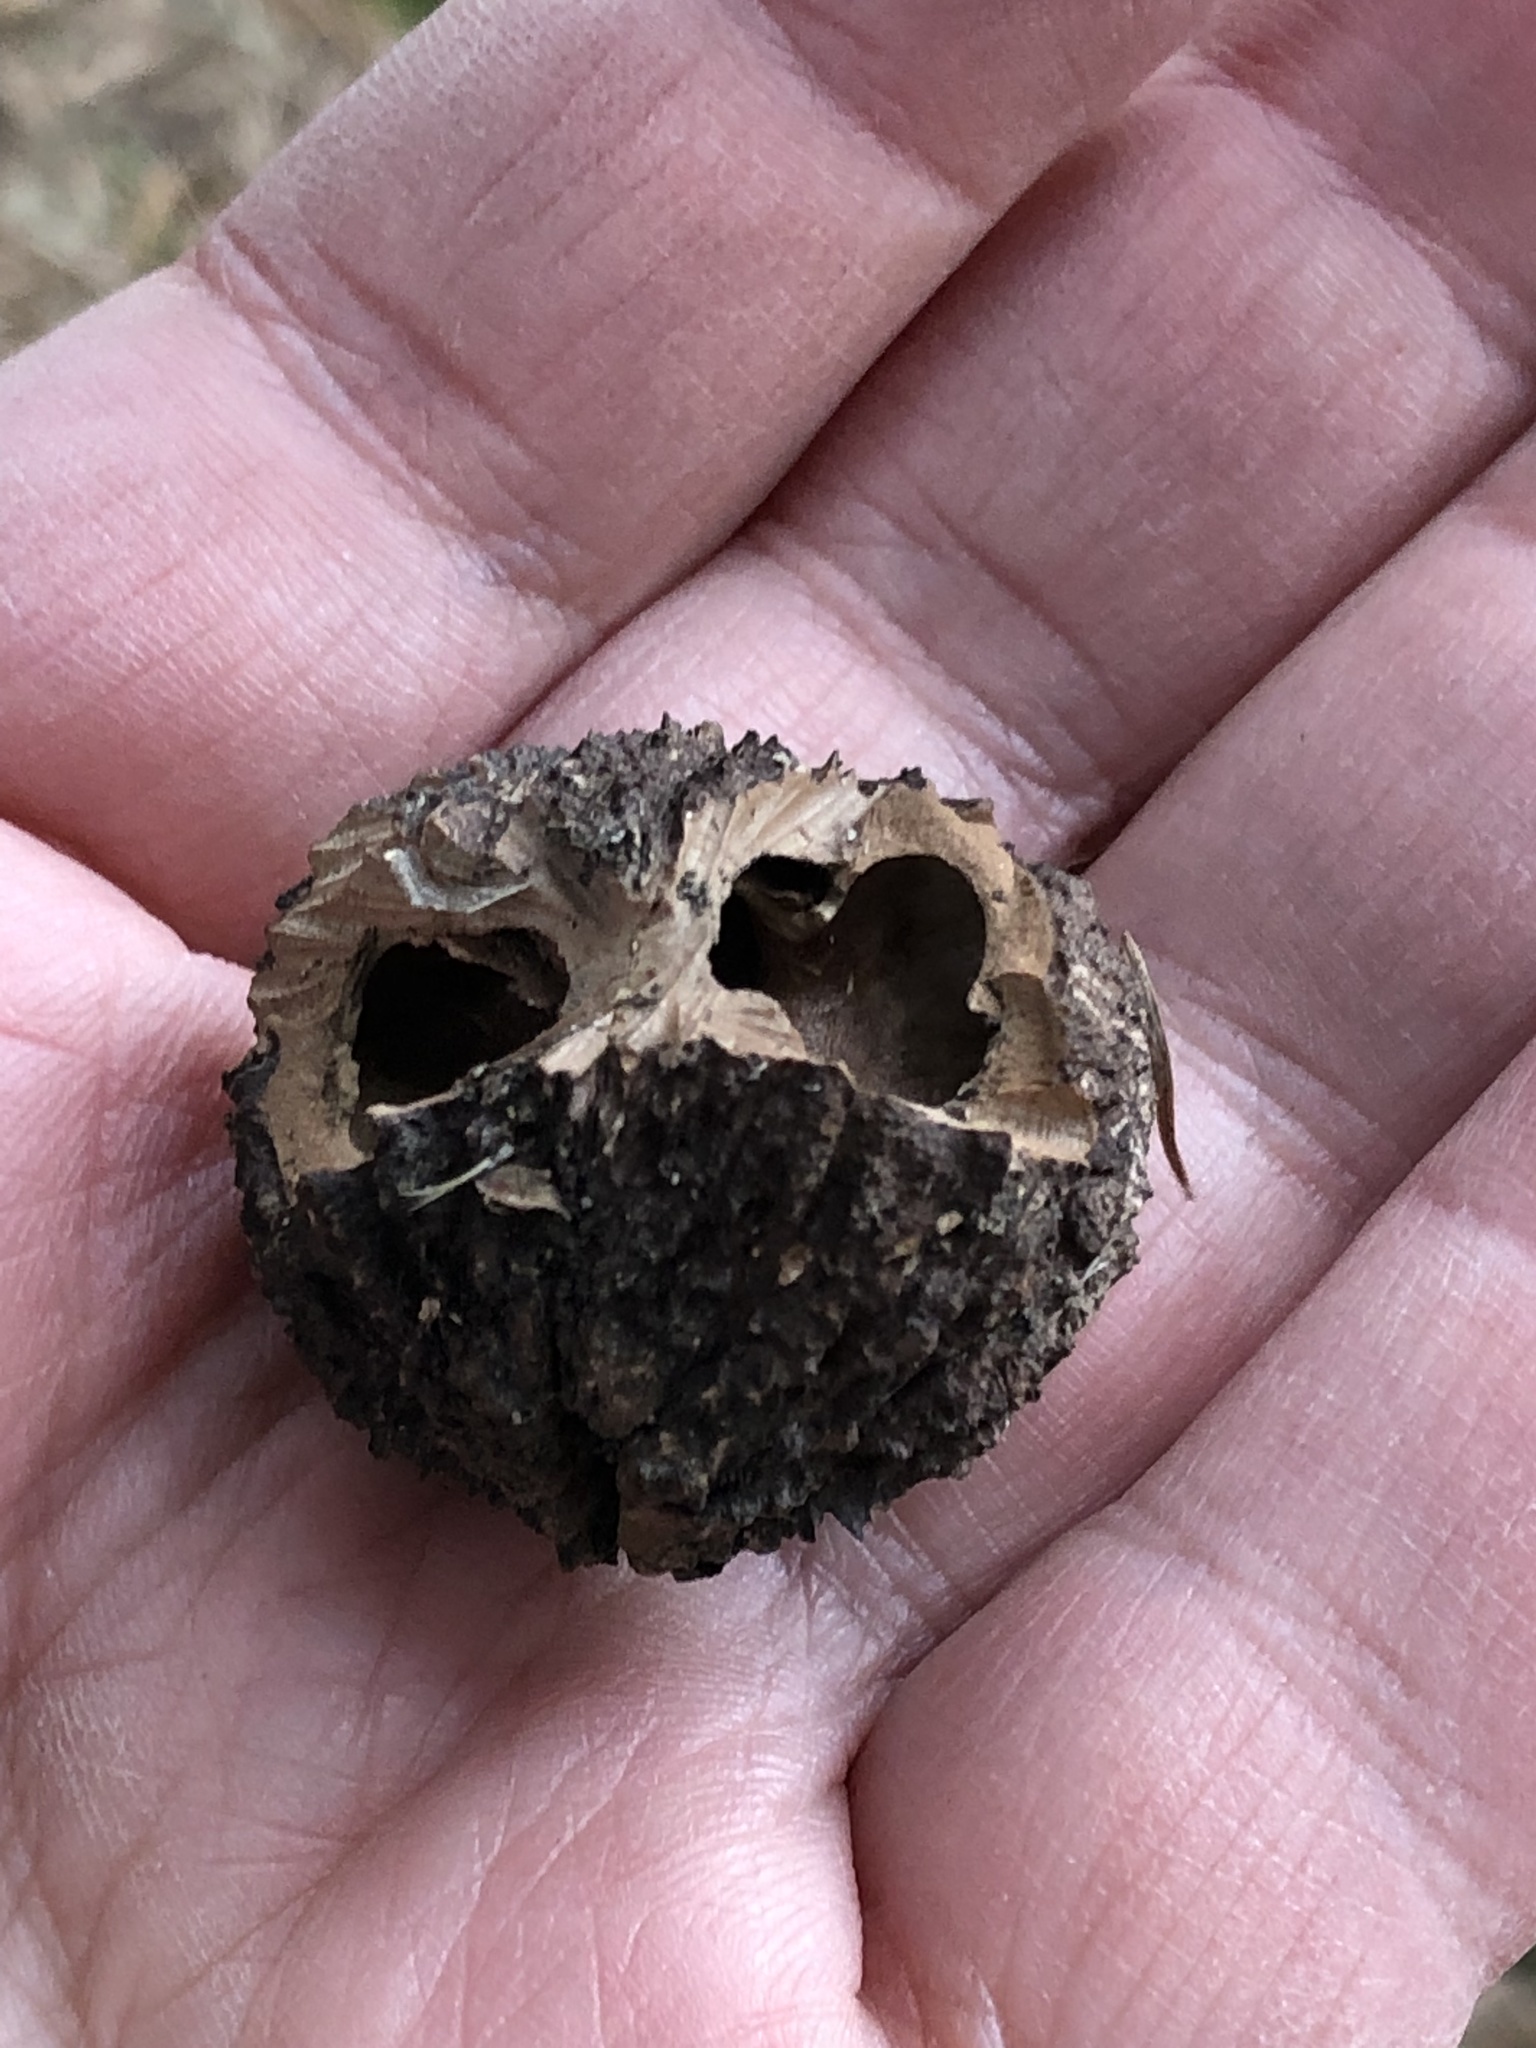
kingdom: Plantae
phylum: Tracheophyta
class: Magnoliopsida
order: Fagales
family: Juglandaceae
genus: Juglans
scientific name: Juglans nigra
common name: Black walnut
